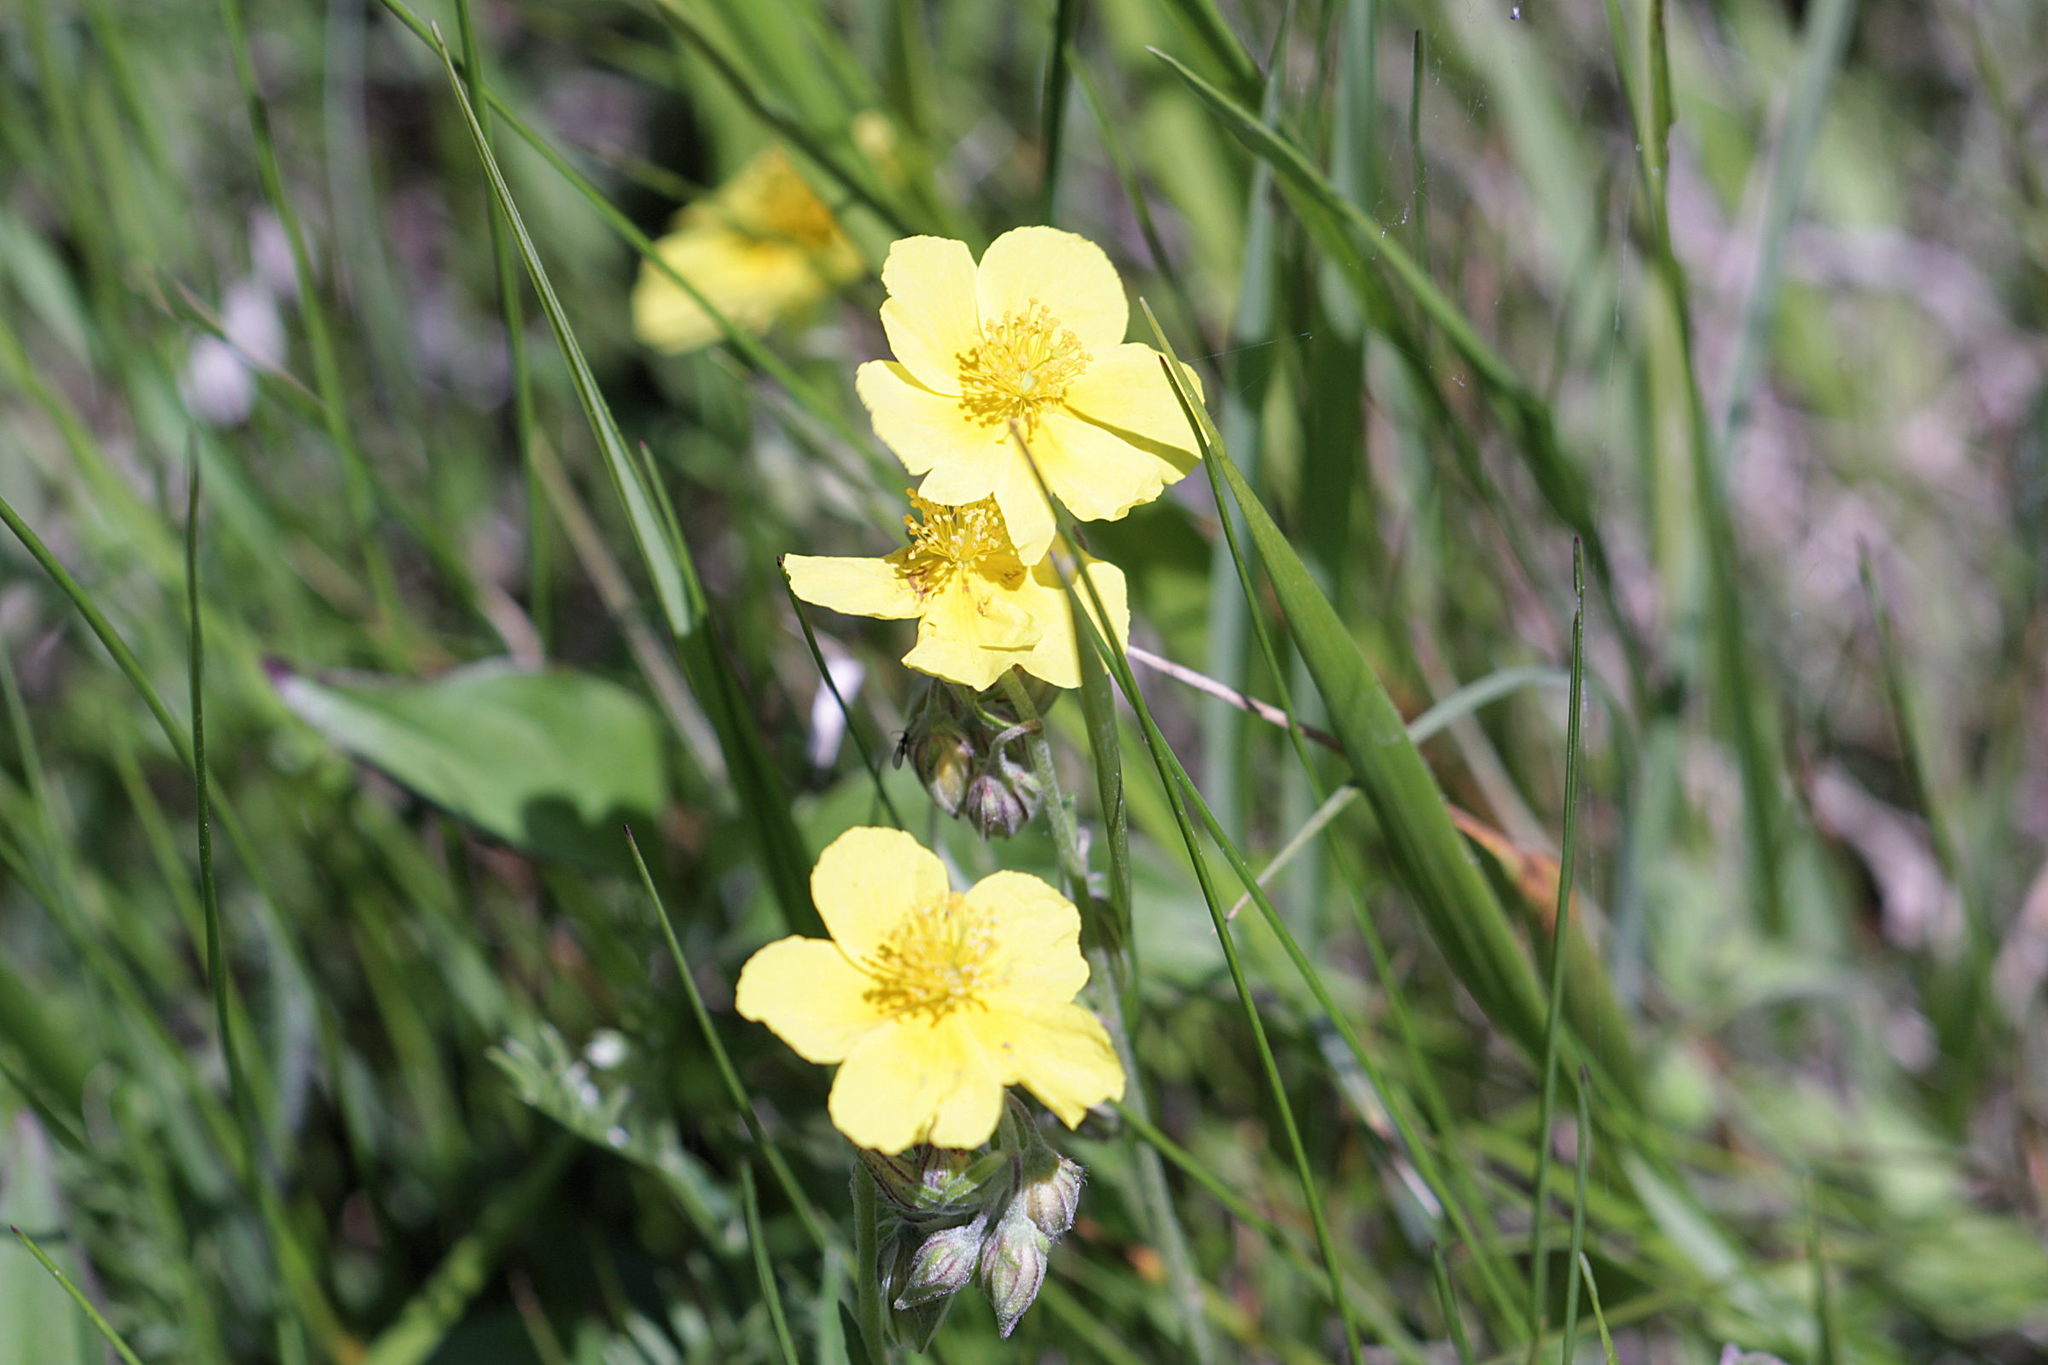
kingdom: Plantae
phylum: Tracheophyta
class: Magnoliopsida
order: Malvales
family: Cistaceae
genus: Helianthemum
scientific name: Helianthemum nummularium
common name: Common rock-rose
